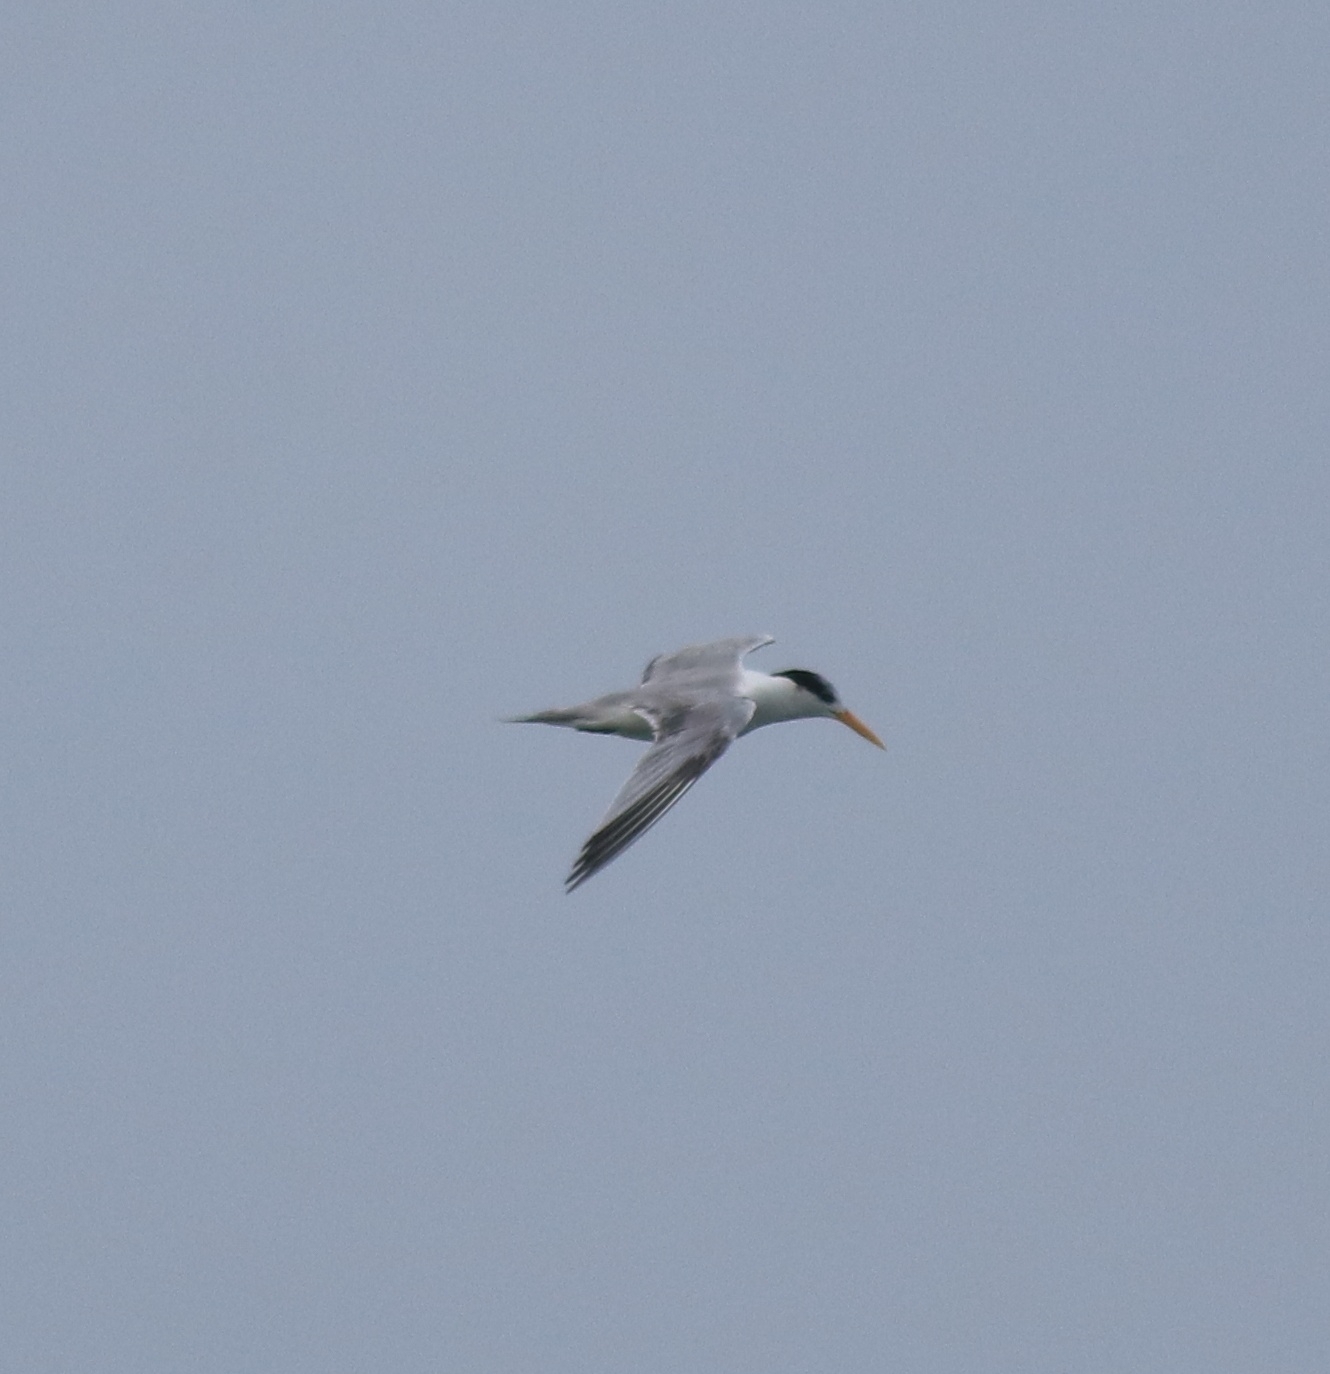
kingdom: Animalia
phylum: Chordata
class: Aves
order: Charadriiformes
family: Laridae
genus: Thalasseus
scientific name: Thalasseus bengalensis
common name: Lesser crested tern
